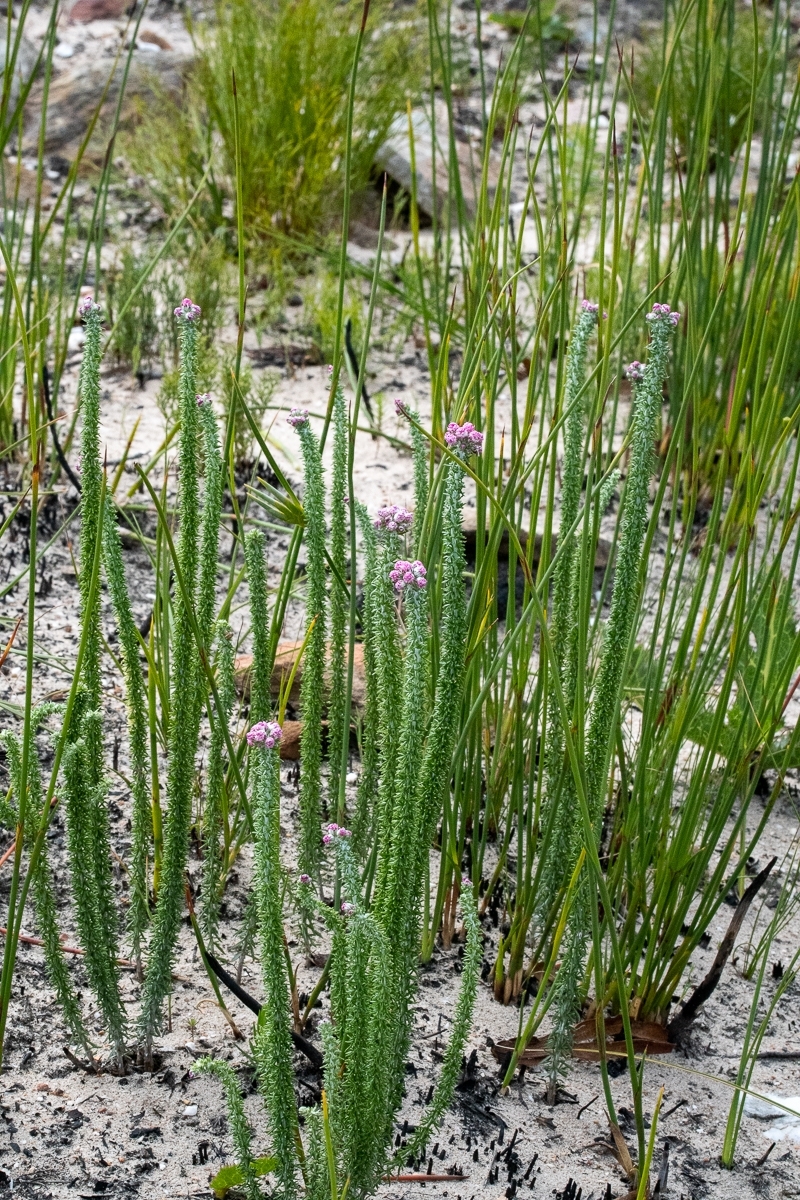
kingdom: Plantae
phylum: Tracheophyta
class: Magnoliopsida
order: Asterales
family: Asteraceae
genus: Lachnospermum
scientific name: Lachnospermum umbellatum
